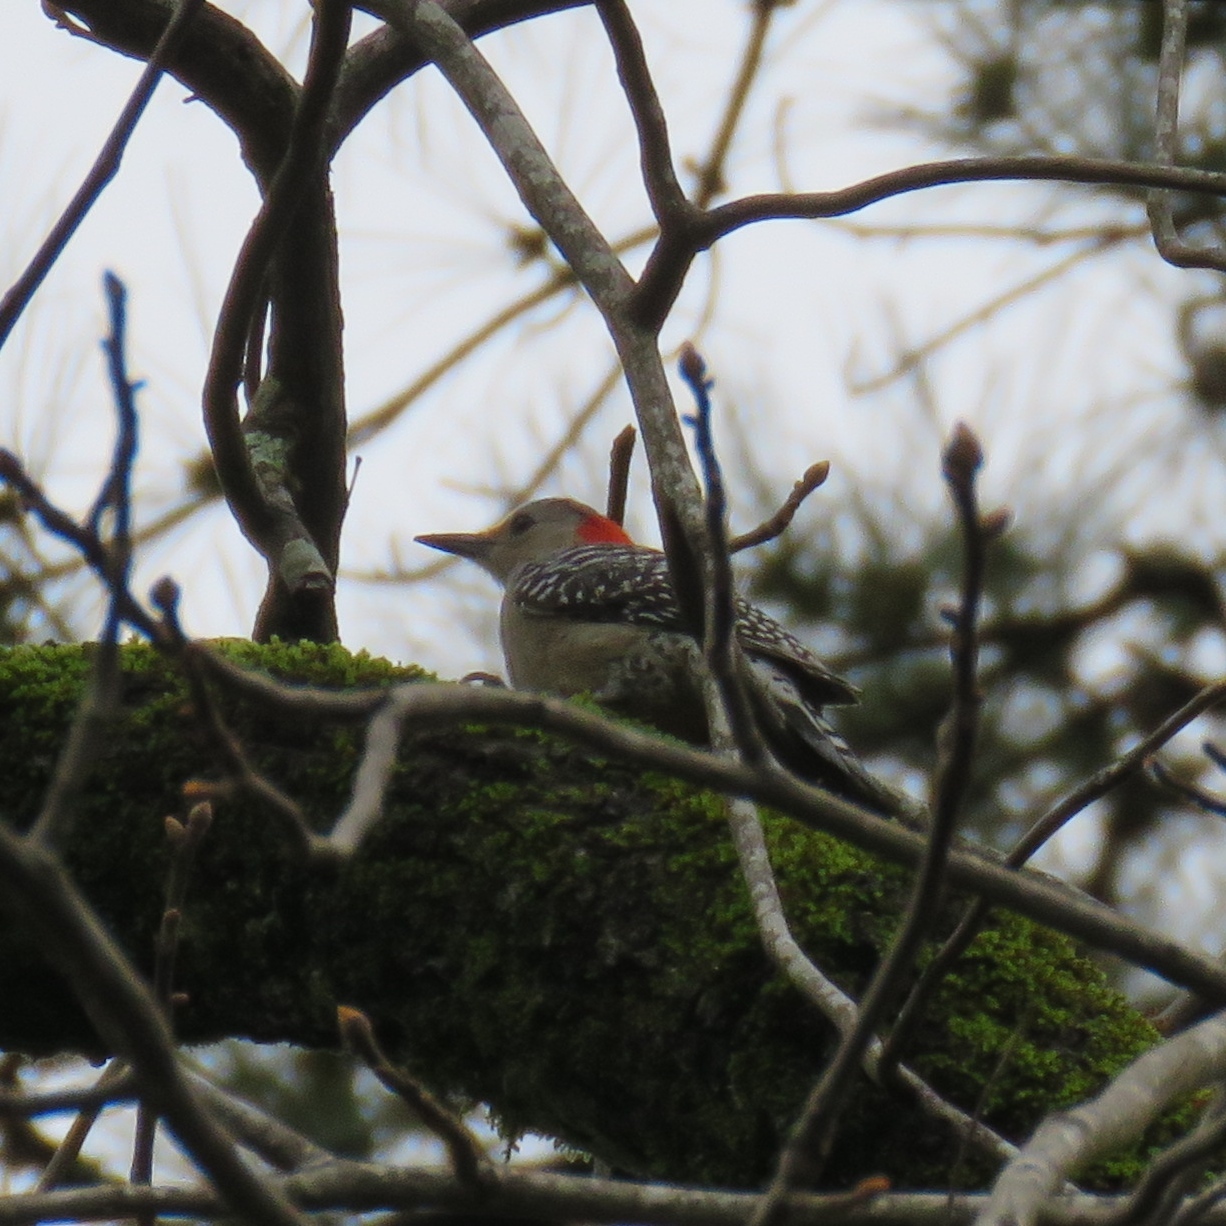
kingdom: Animalia
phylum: Chordata
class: Aves
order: Piciformes
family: Picidae
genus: Melanerpes
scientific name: Melanerpes carolinus
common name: Red-bellied woodpecker
